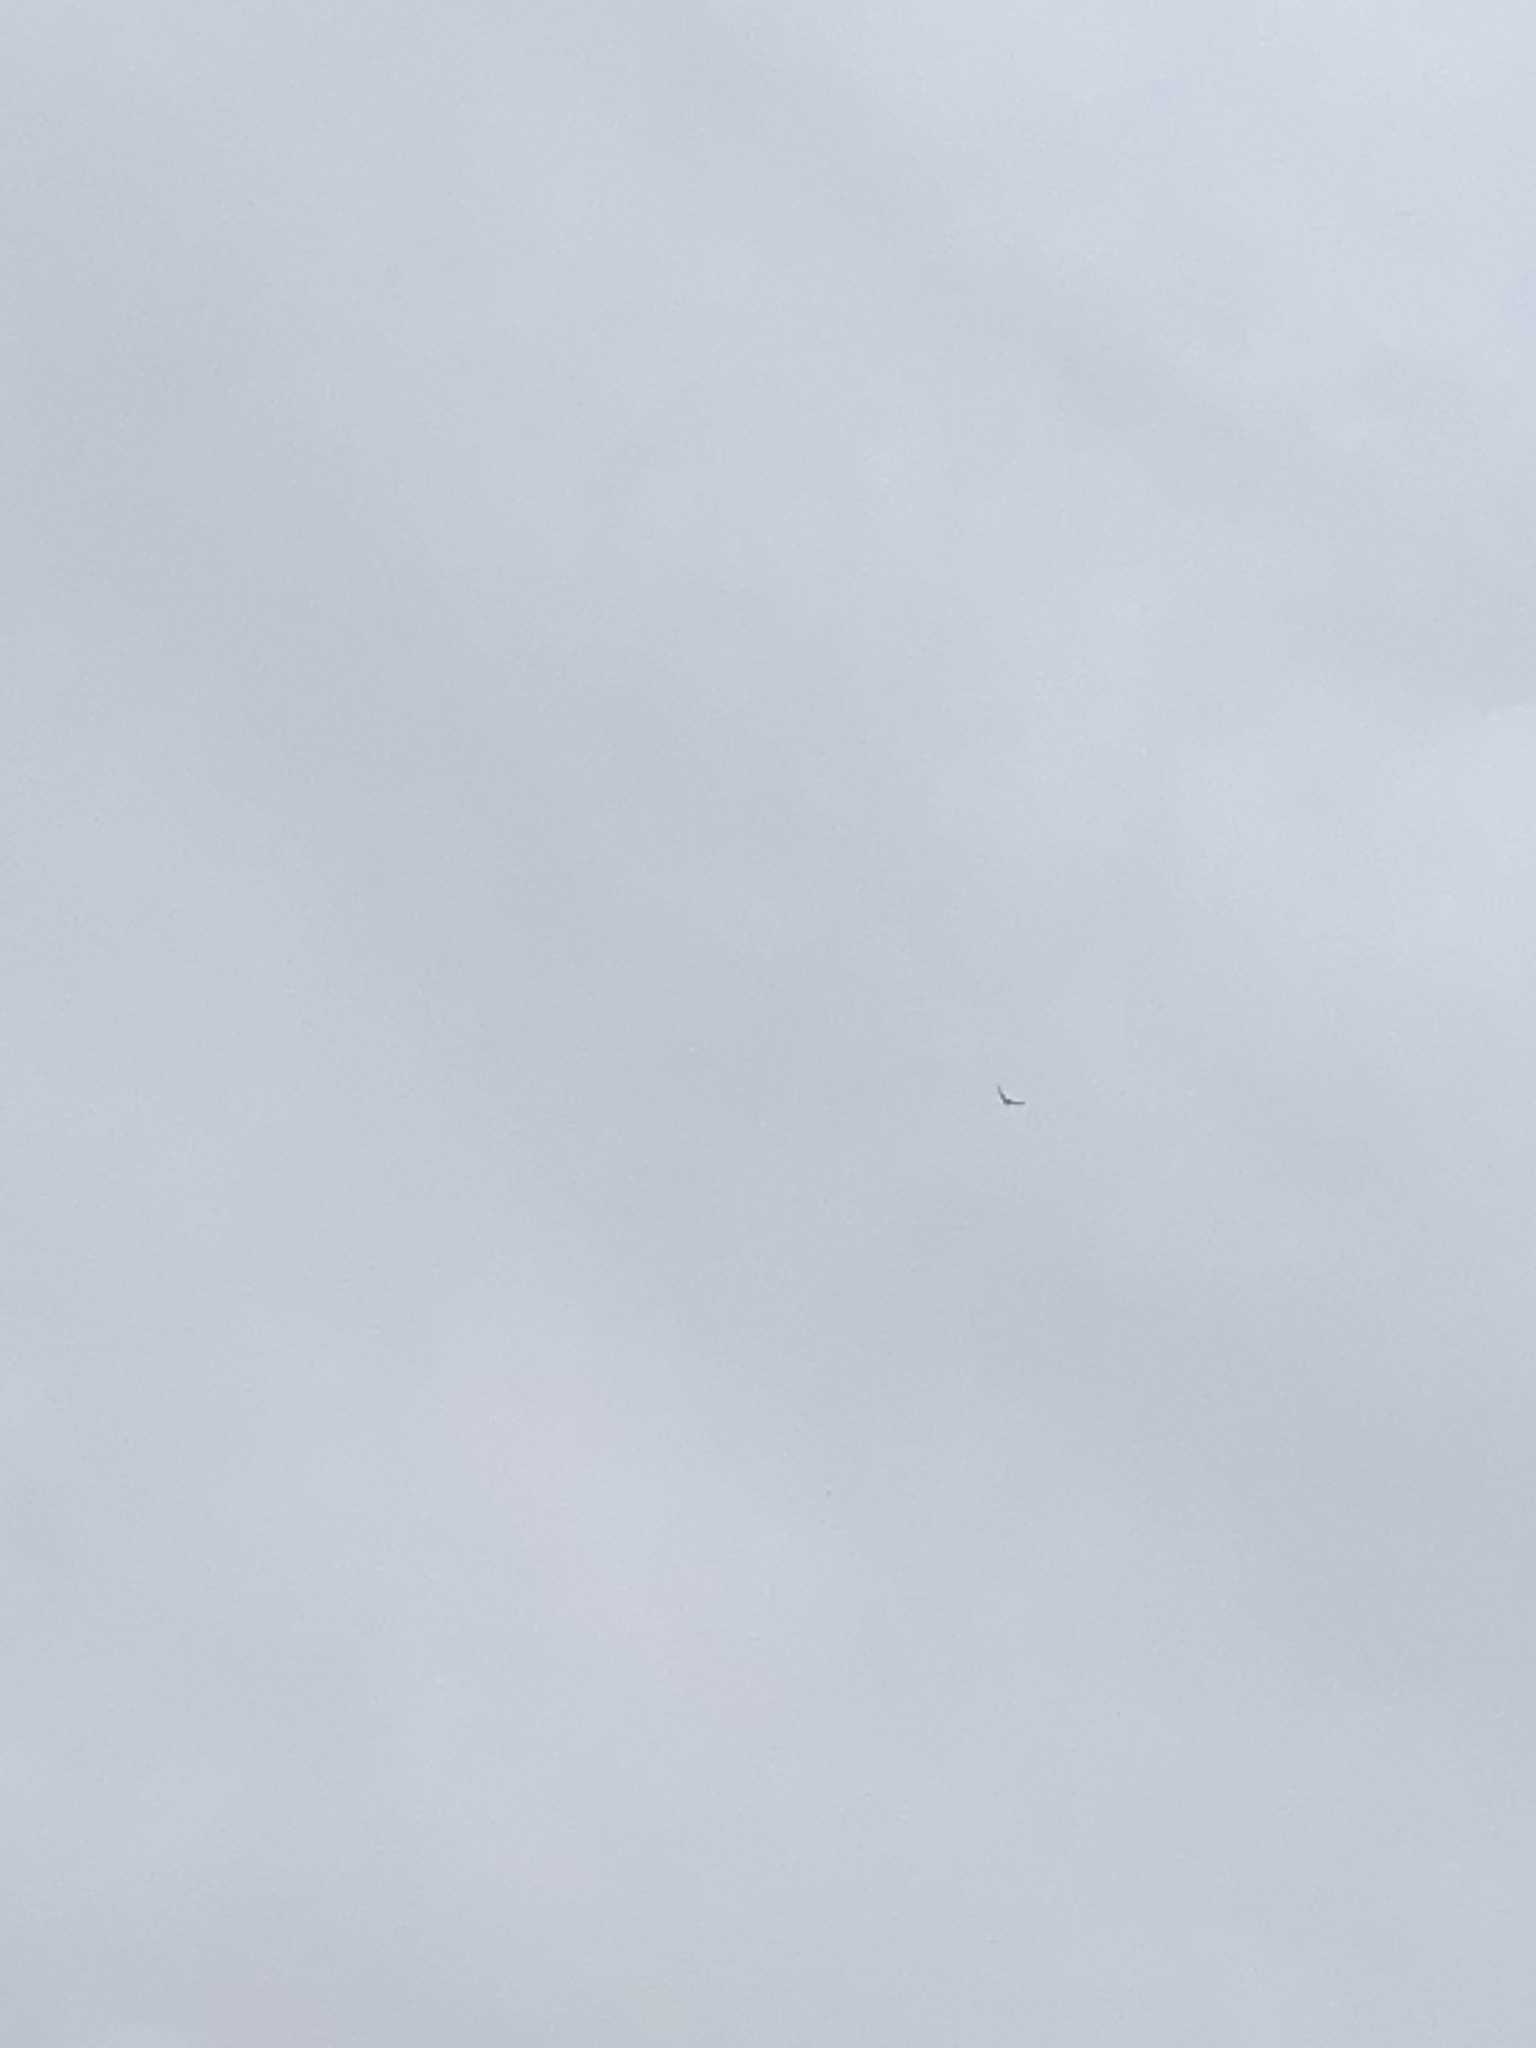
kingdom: Animalia
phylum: Chordata
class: Aves
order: Apodiformes
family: Apodidae
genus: Apus
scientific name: Apus apus
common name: Common swift
